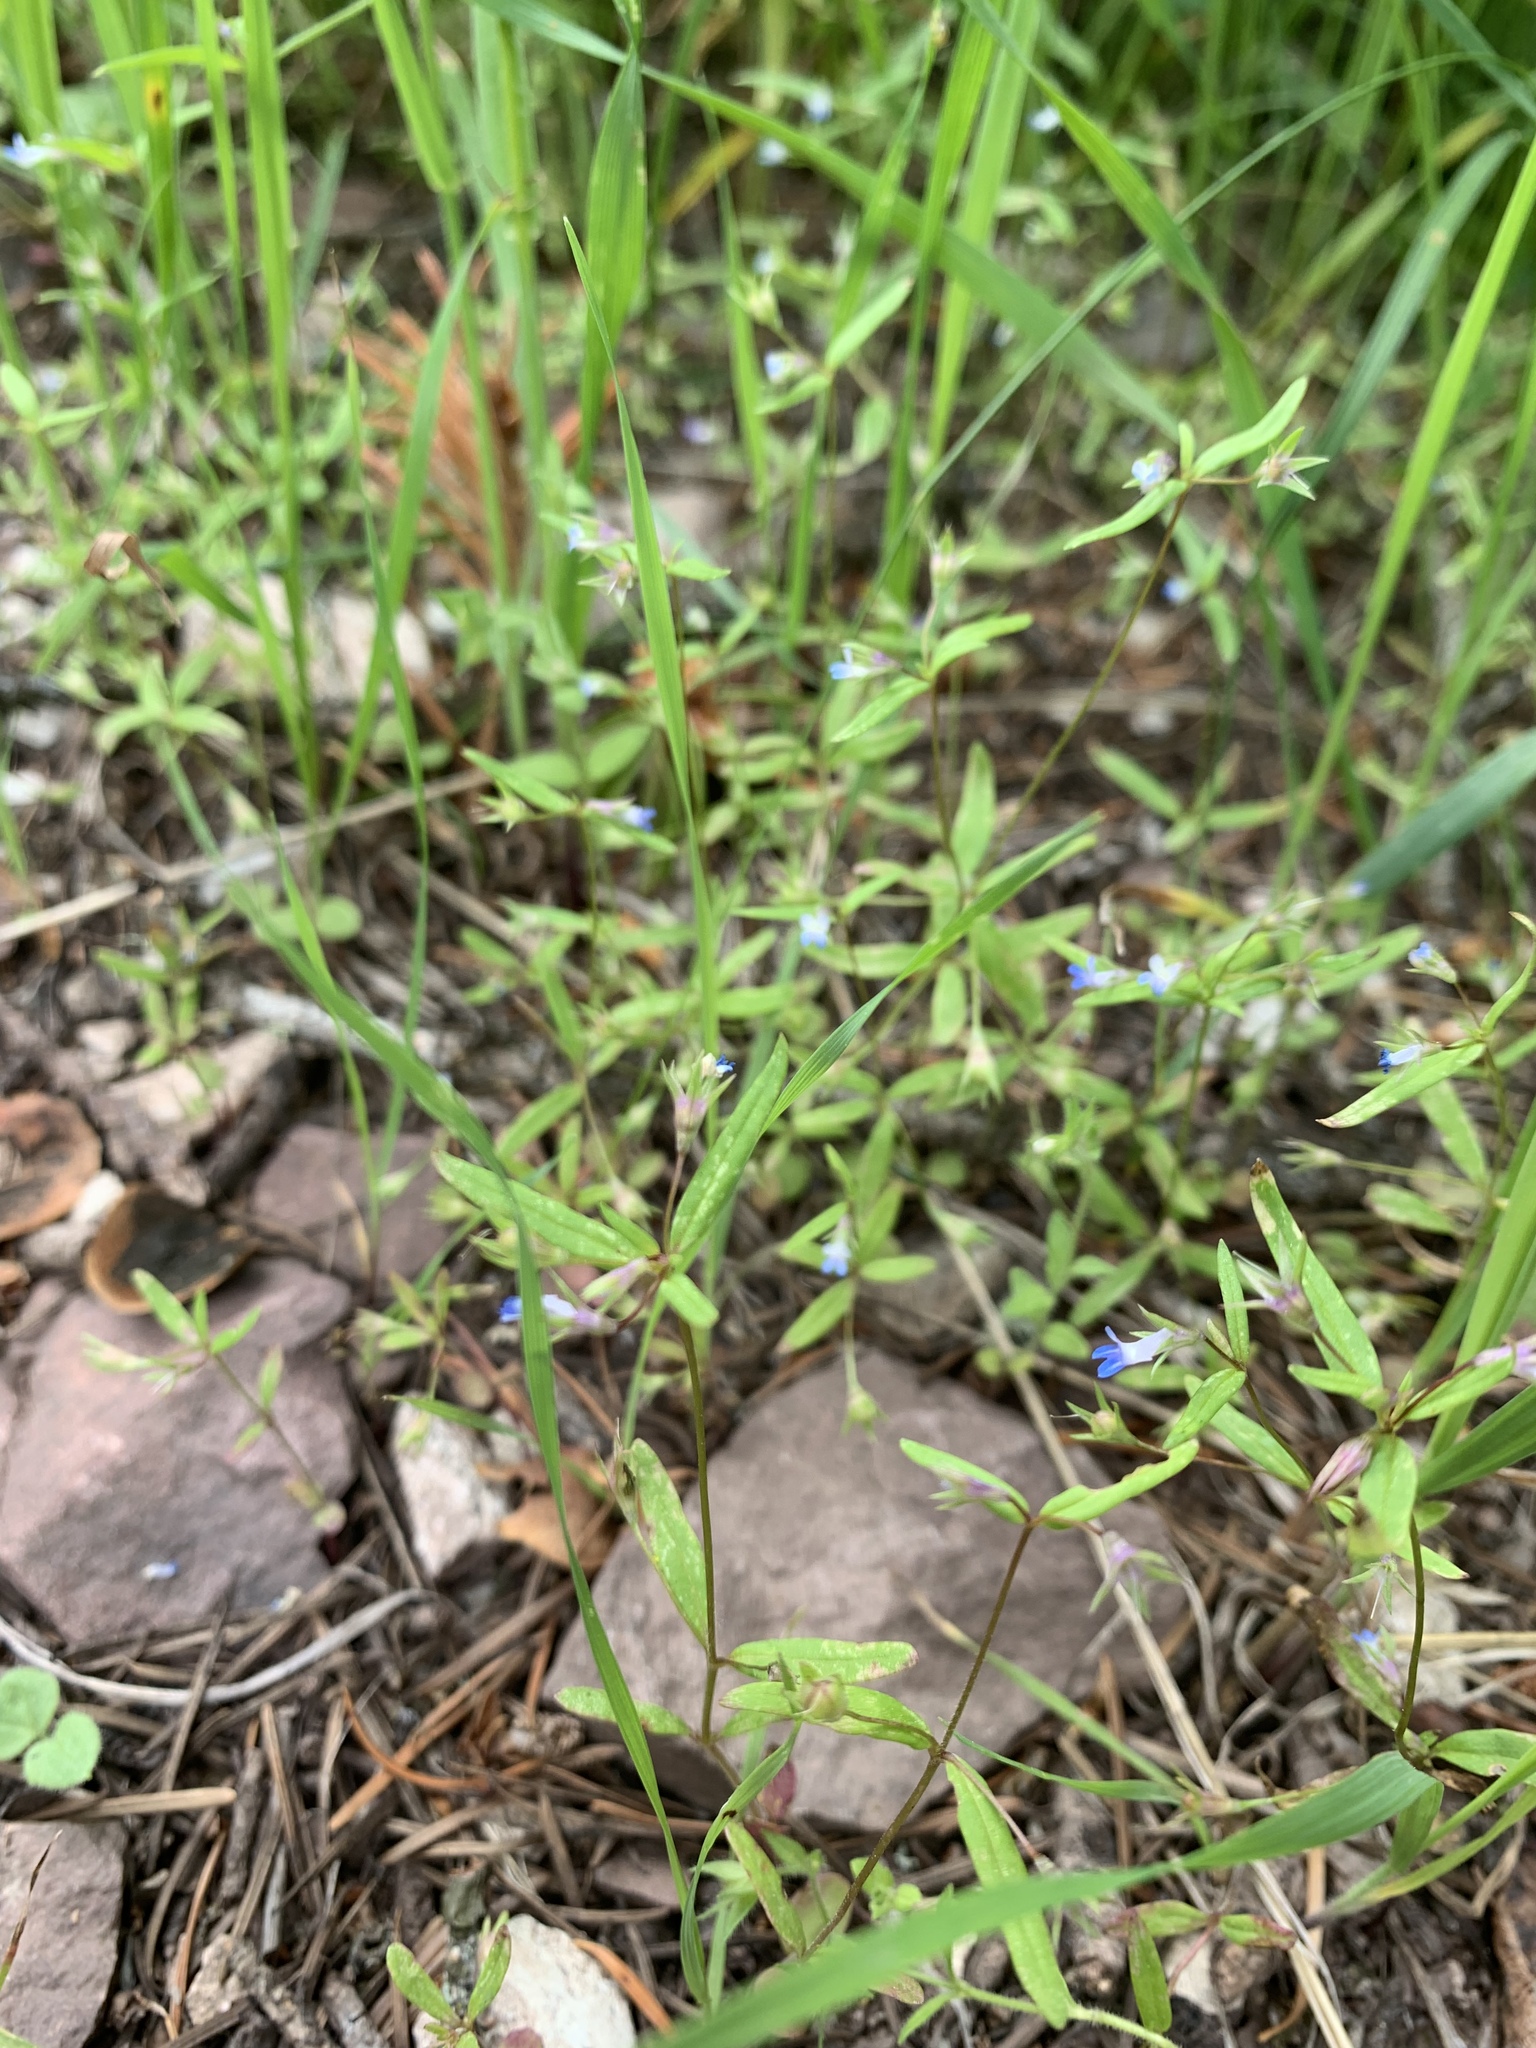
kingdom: Plantae
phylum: Tracheophyta
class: Magnoliopsida
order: Lamiales
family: Plantaginaceae
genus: Collinsia
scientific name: Collinsia parviflora
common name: Blue-lips
